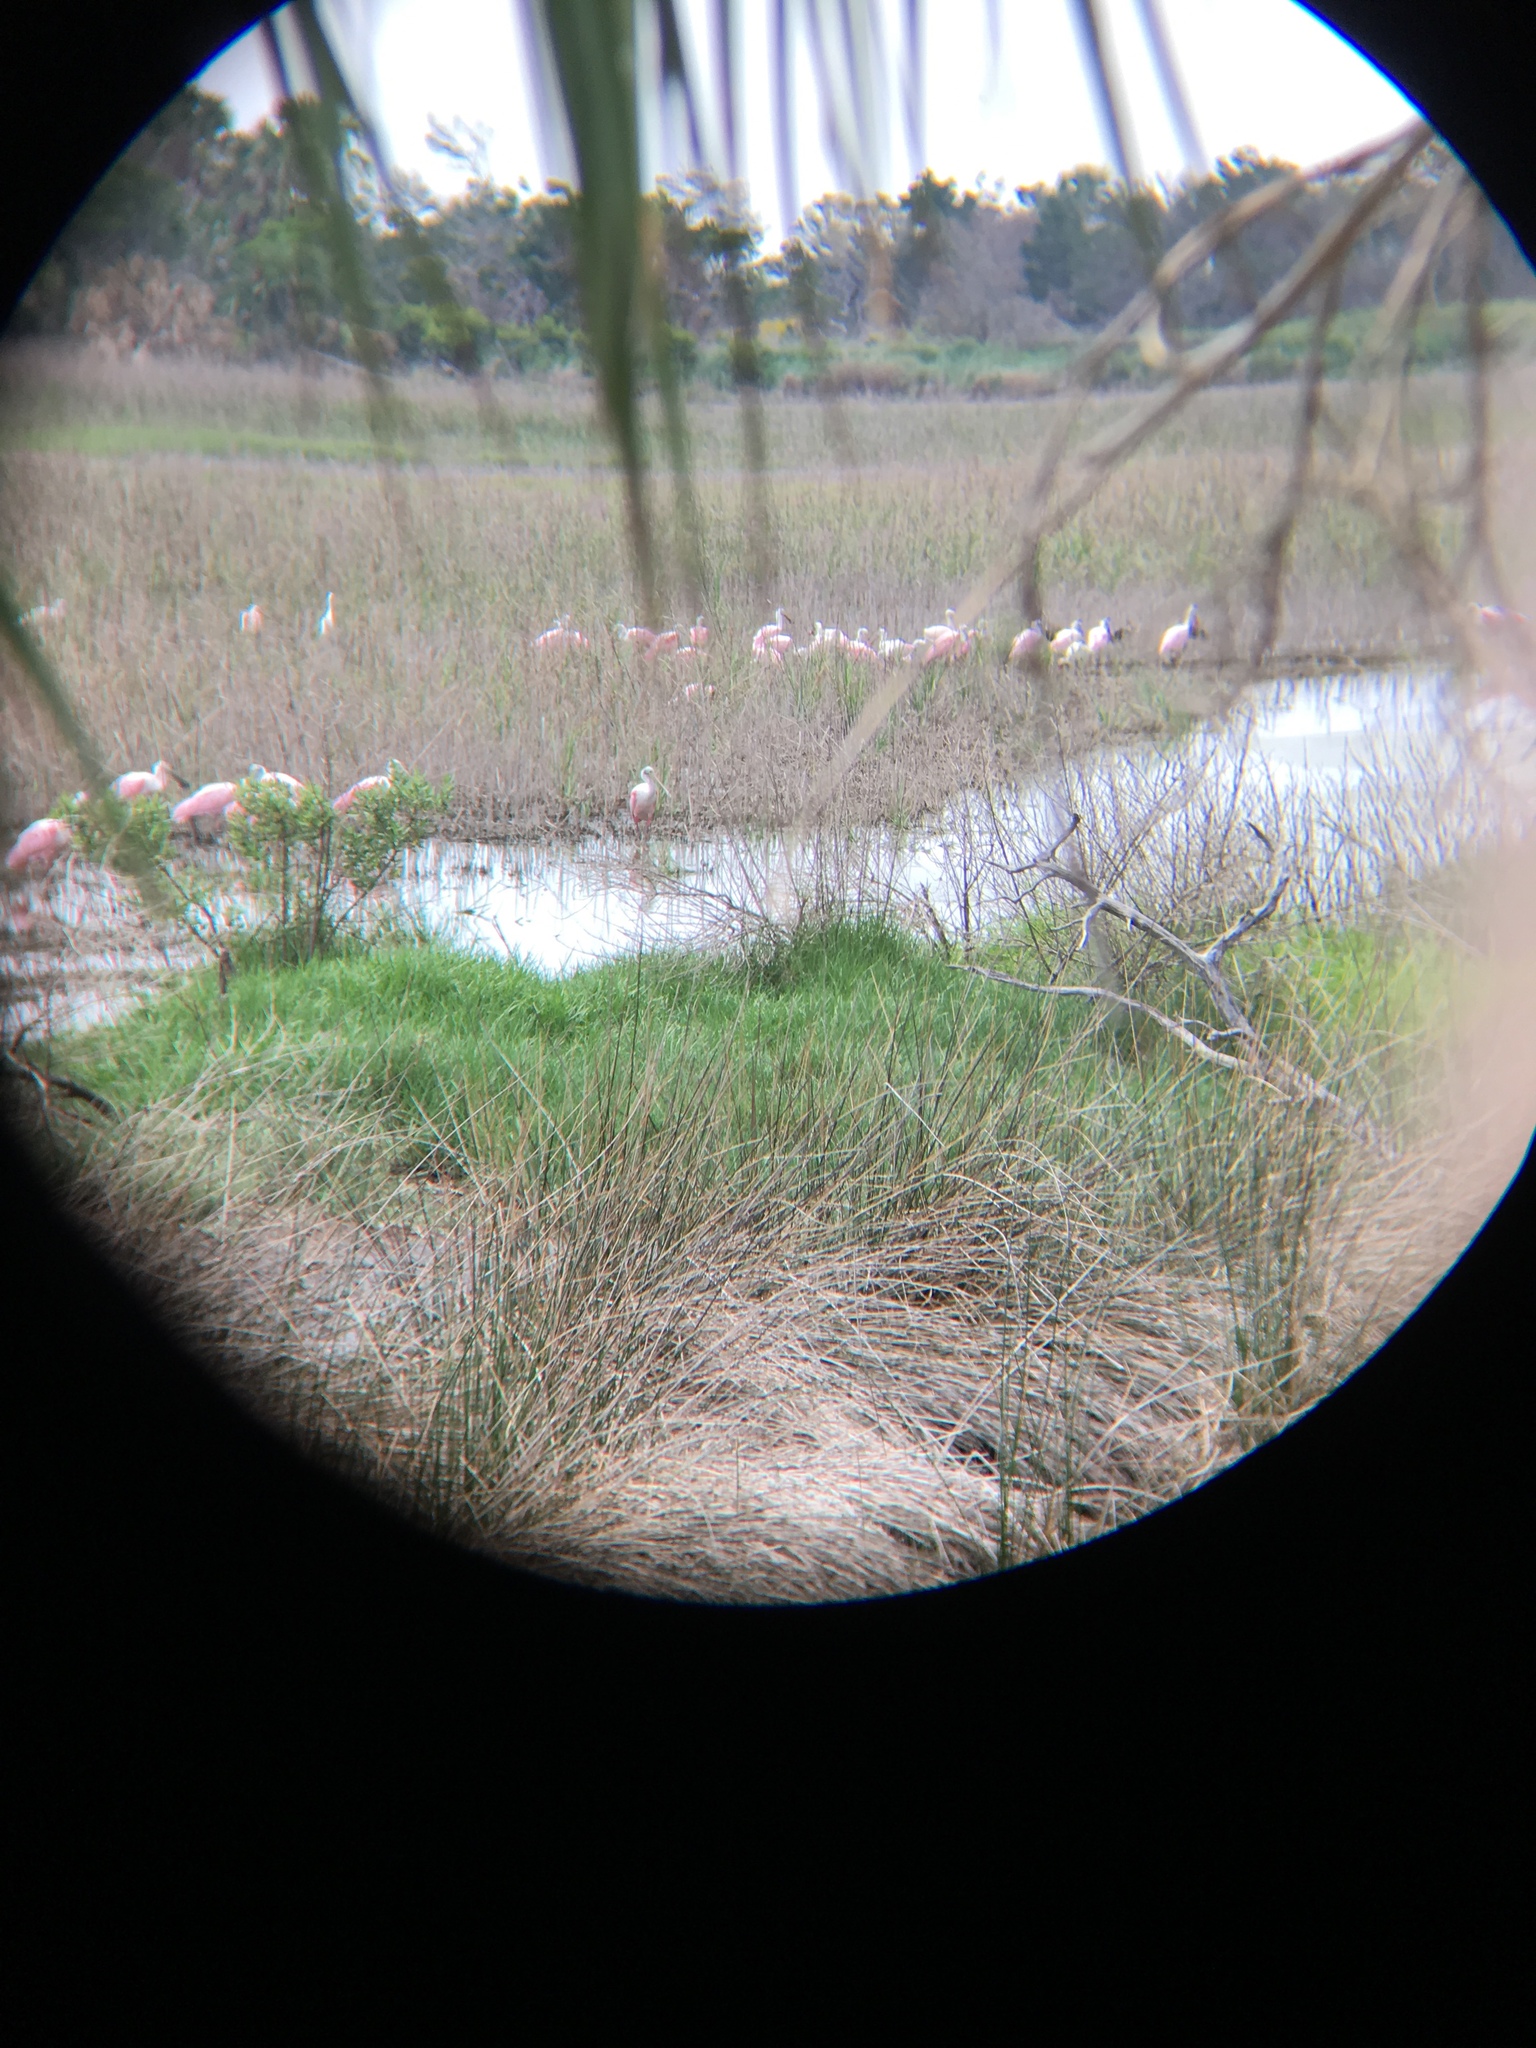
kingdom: Animalia
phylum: Chordata
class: Aves
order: Pelecaniformes
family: Threskiornithidae
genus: Platalea
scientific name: Platalea ajaja
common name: Roseate spoonbill
